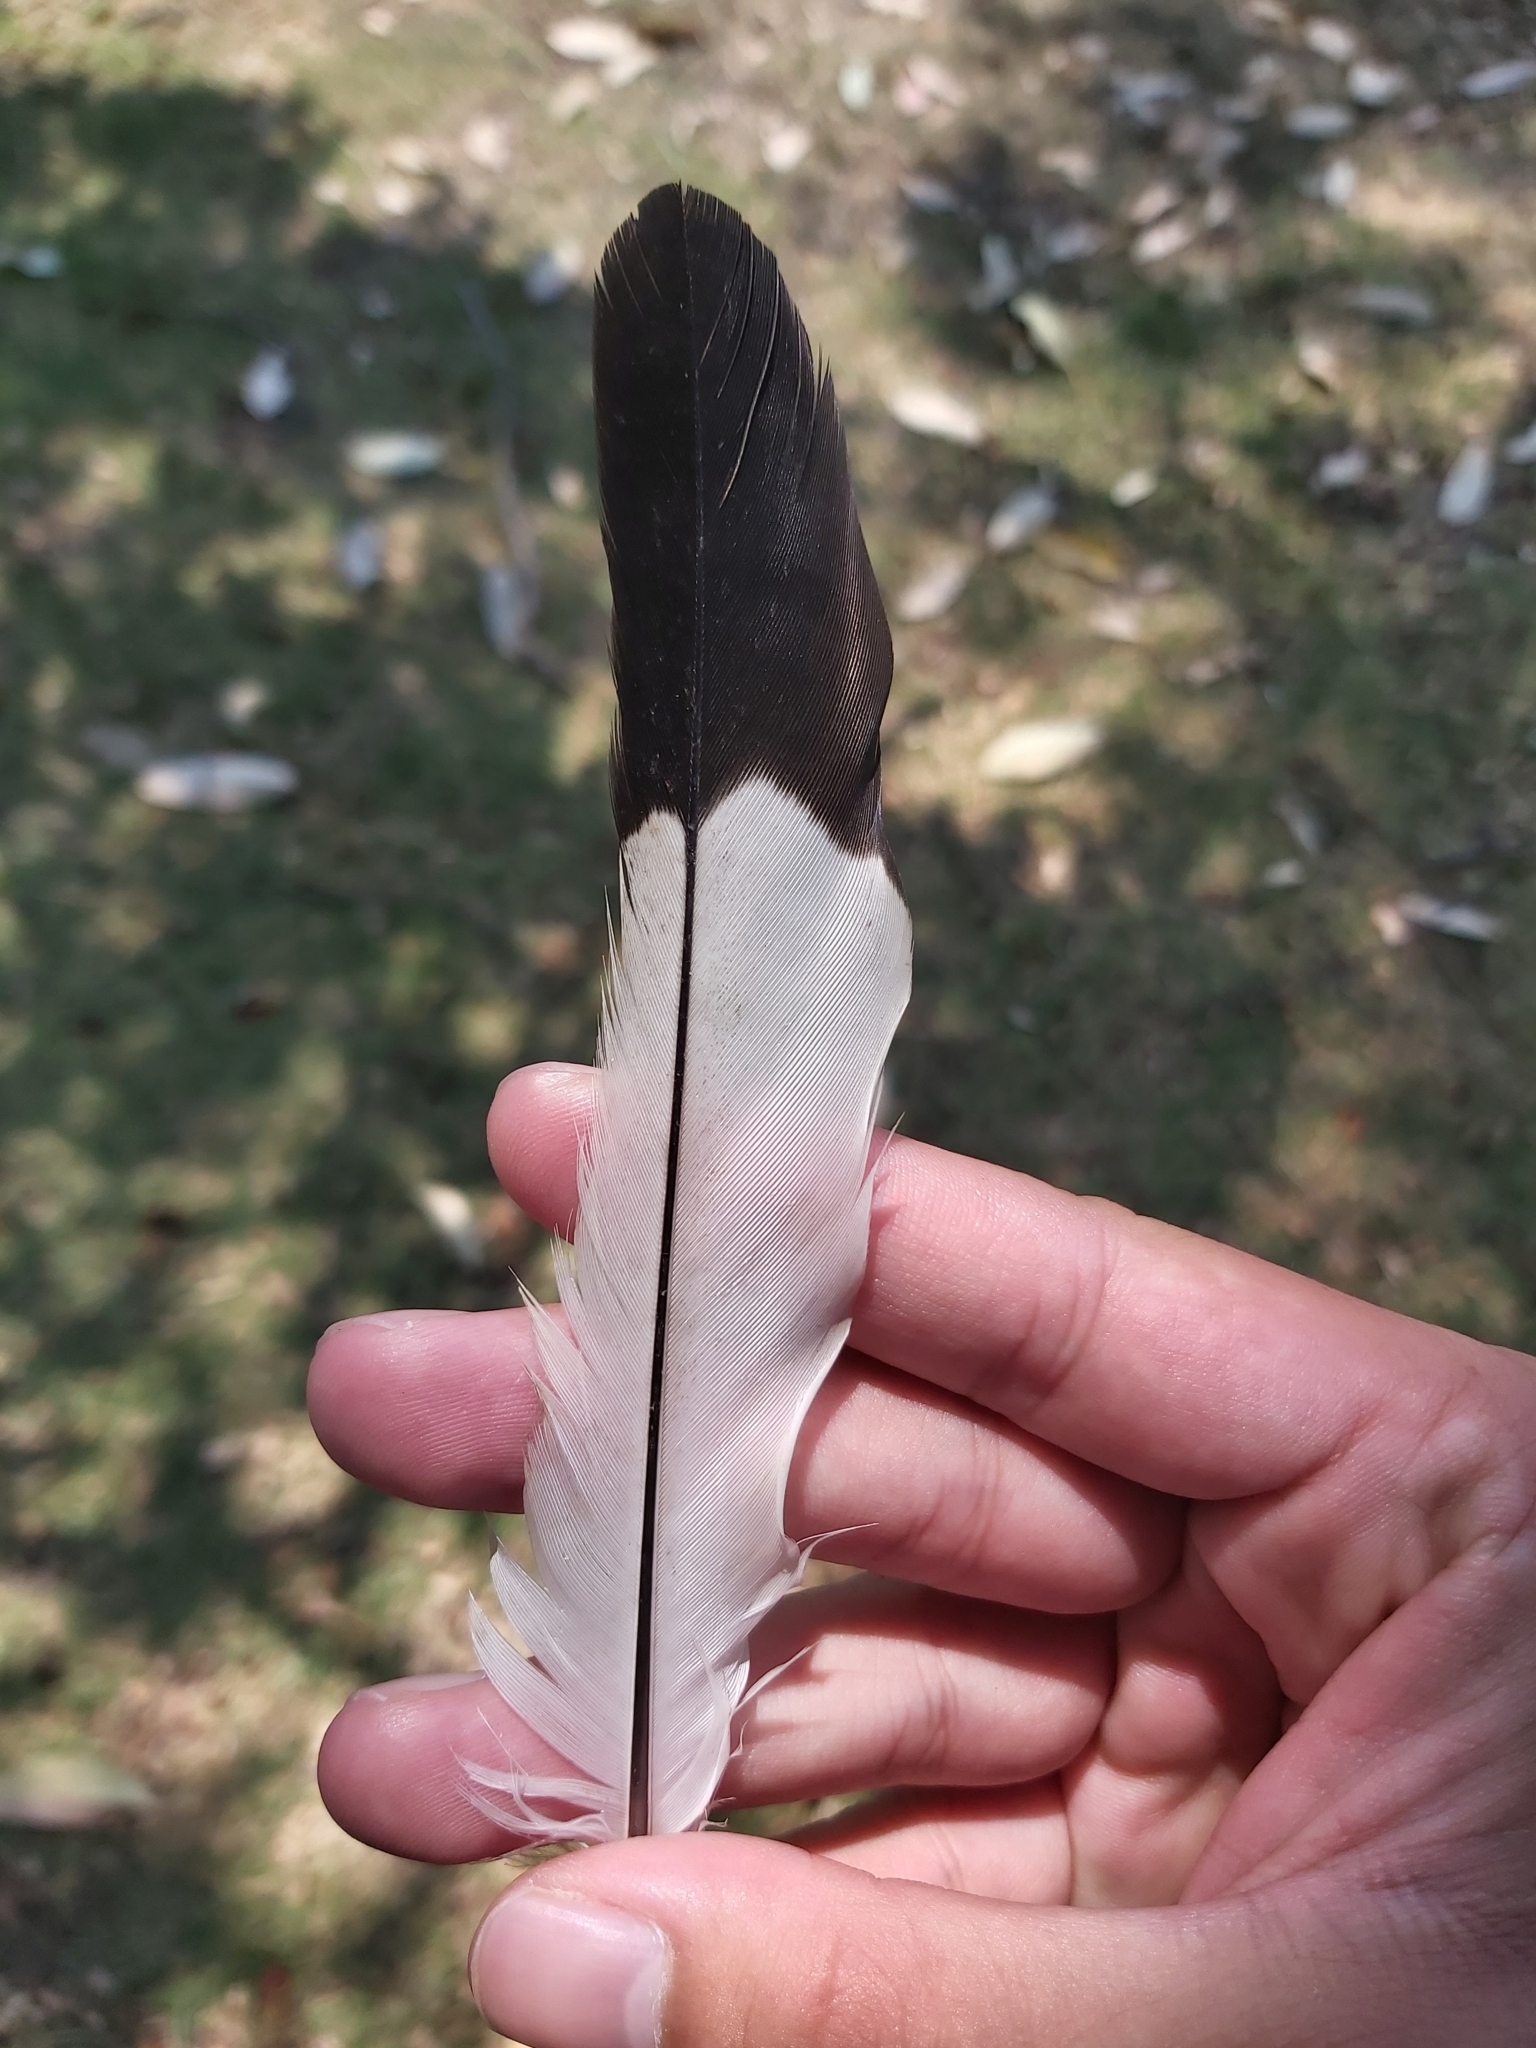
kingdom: Animalia
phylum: Chordata
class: Aves
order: Passeriformes
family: Cracticidae
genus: Gymnorhina
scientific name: Gymnorhina tibicen
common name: Australian magpie
